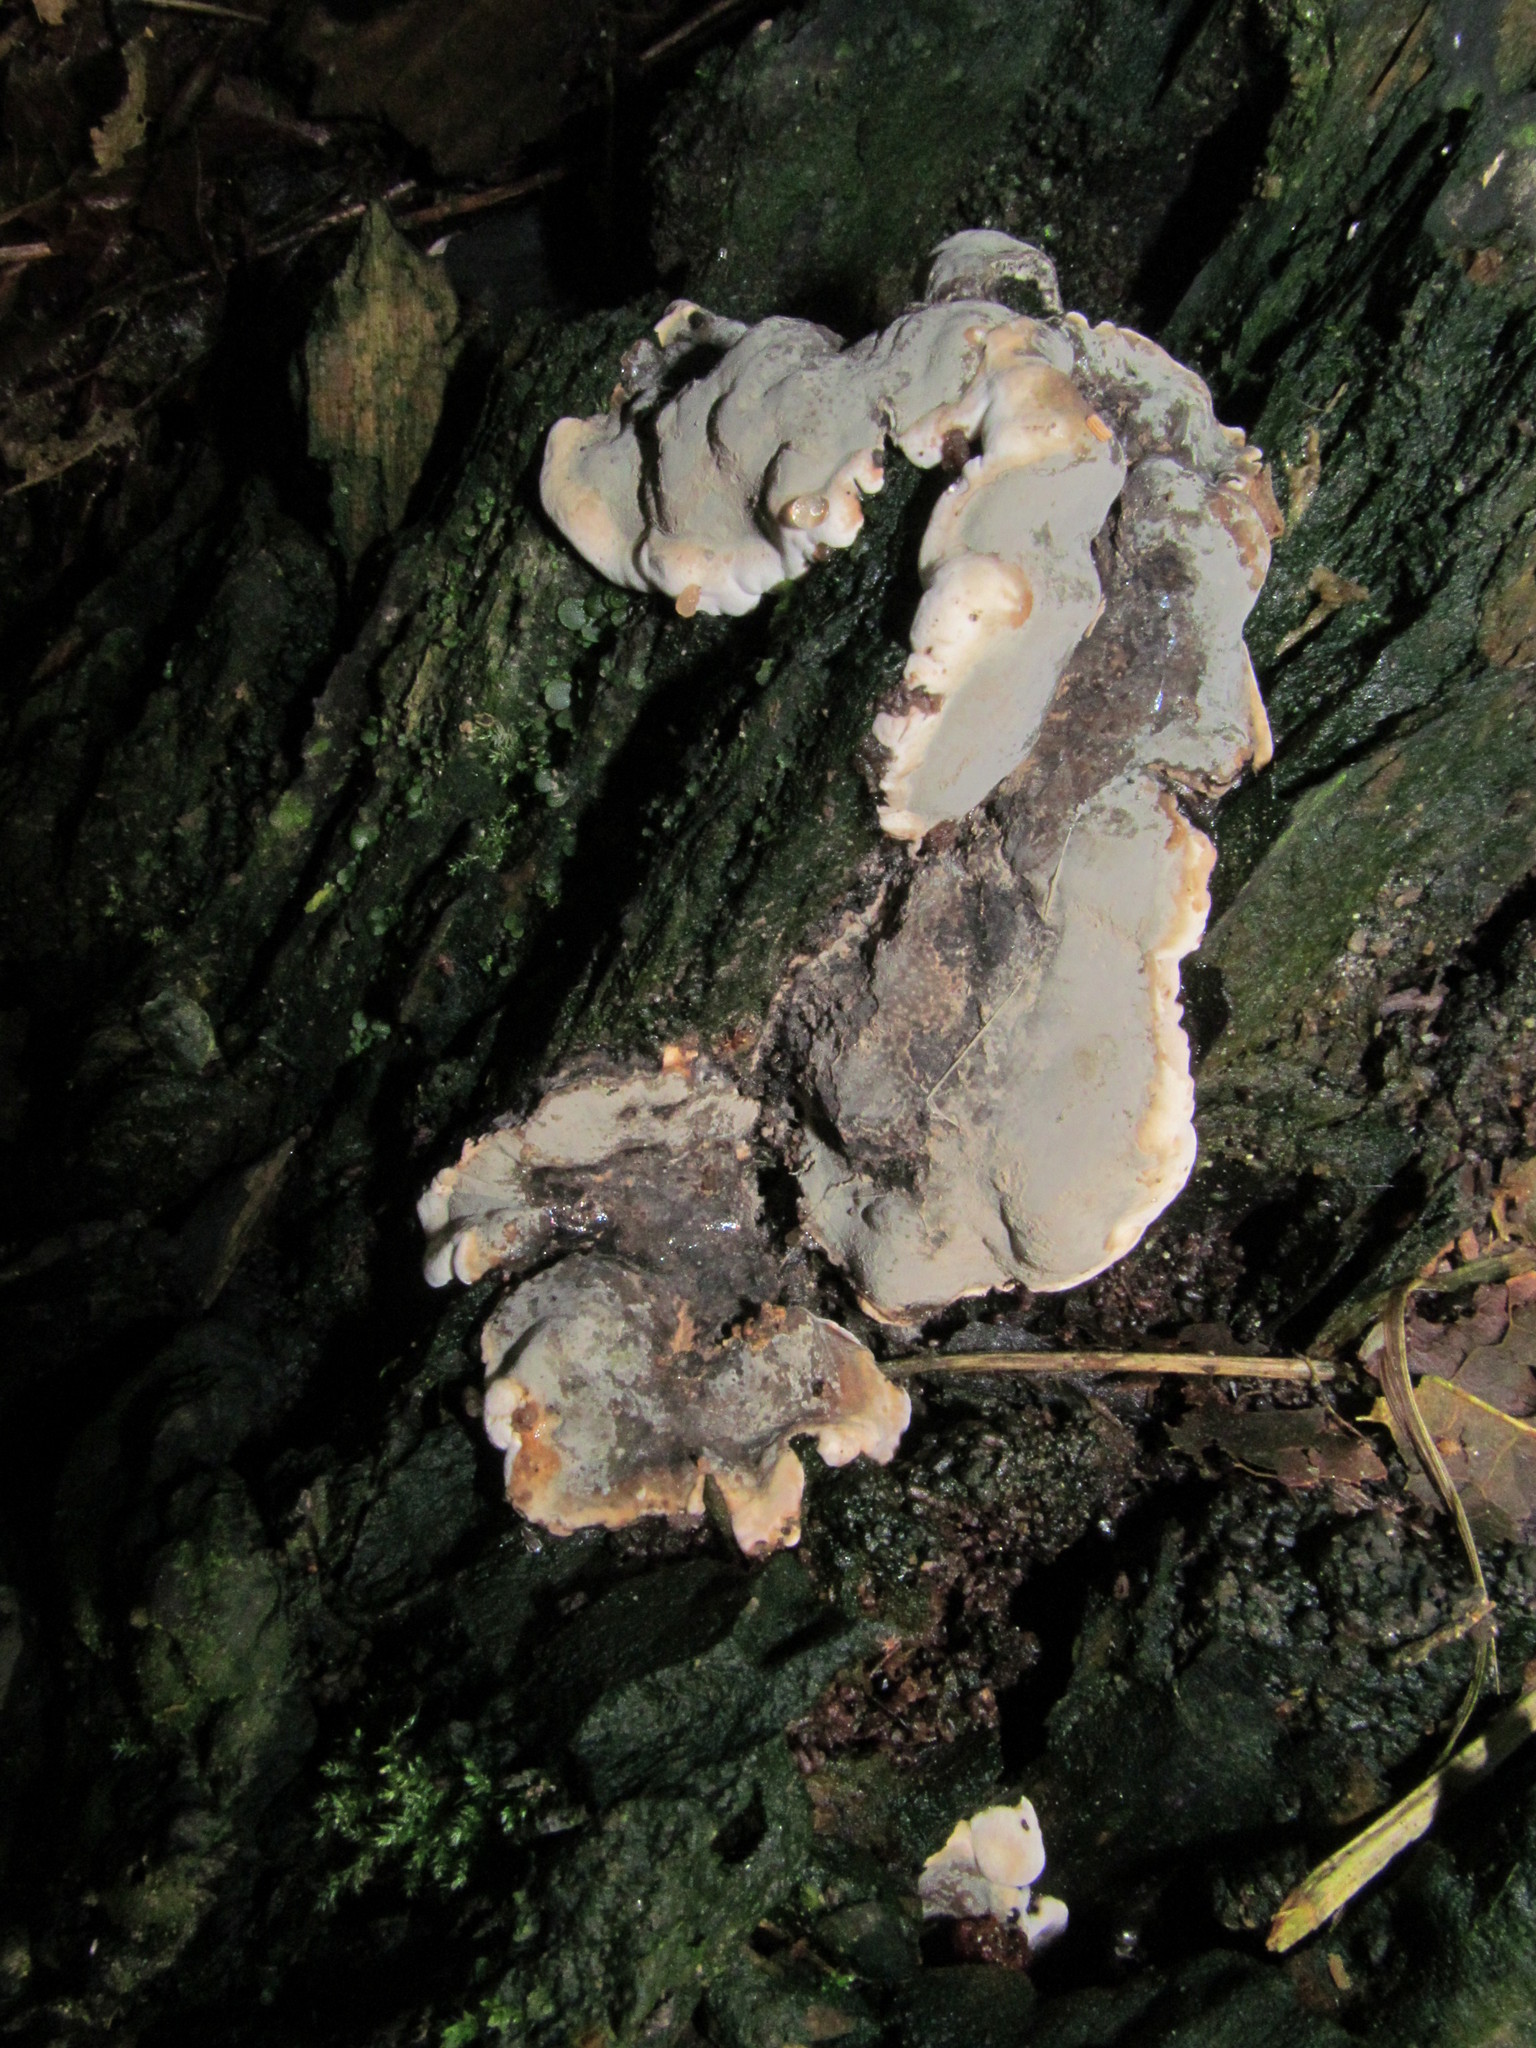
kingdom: Fungi
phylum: Ascomycota
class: Sordariomycetes
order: Xylariales
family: Xylariaceae
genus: Kretzschmaria
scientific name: Kretzschmaria deusta
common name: Brittle cinder
